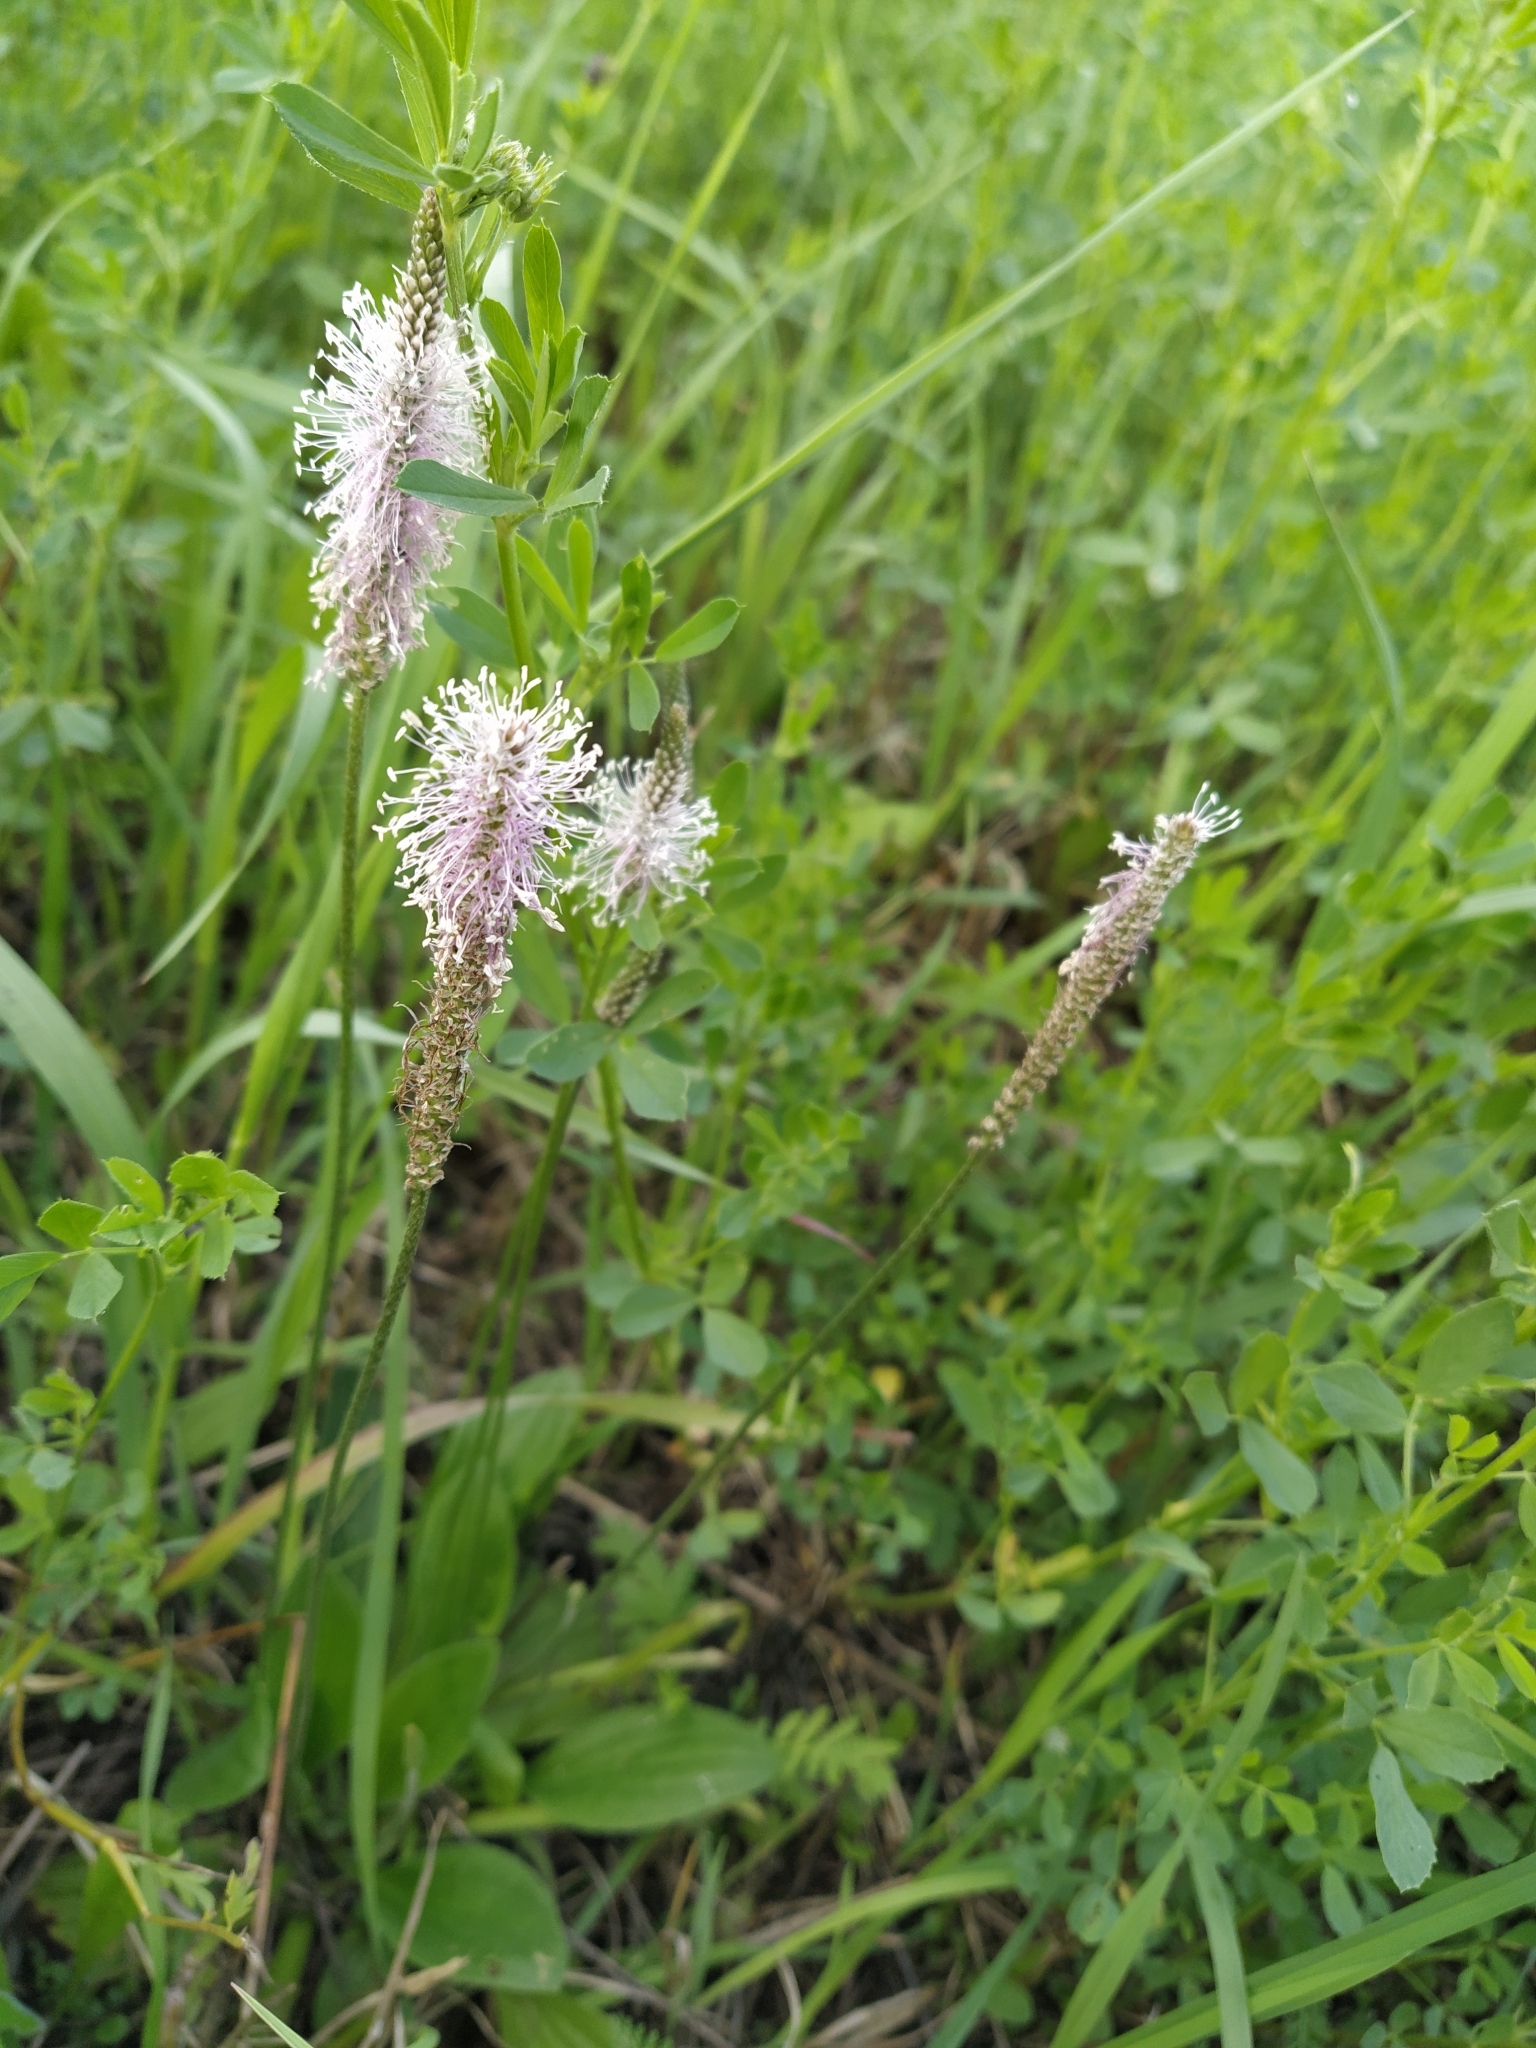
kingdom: Plantae
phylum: Tracheophyta
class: Magnoliopsida
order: Lamiales
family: Plantaginaceae
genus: Plantago
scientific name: Plantago media
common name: Hoary plantain
